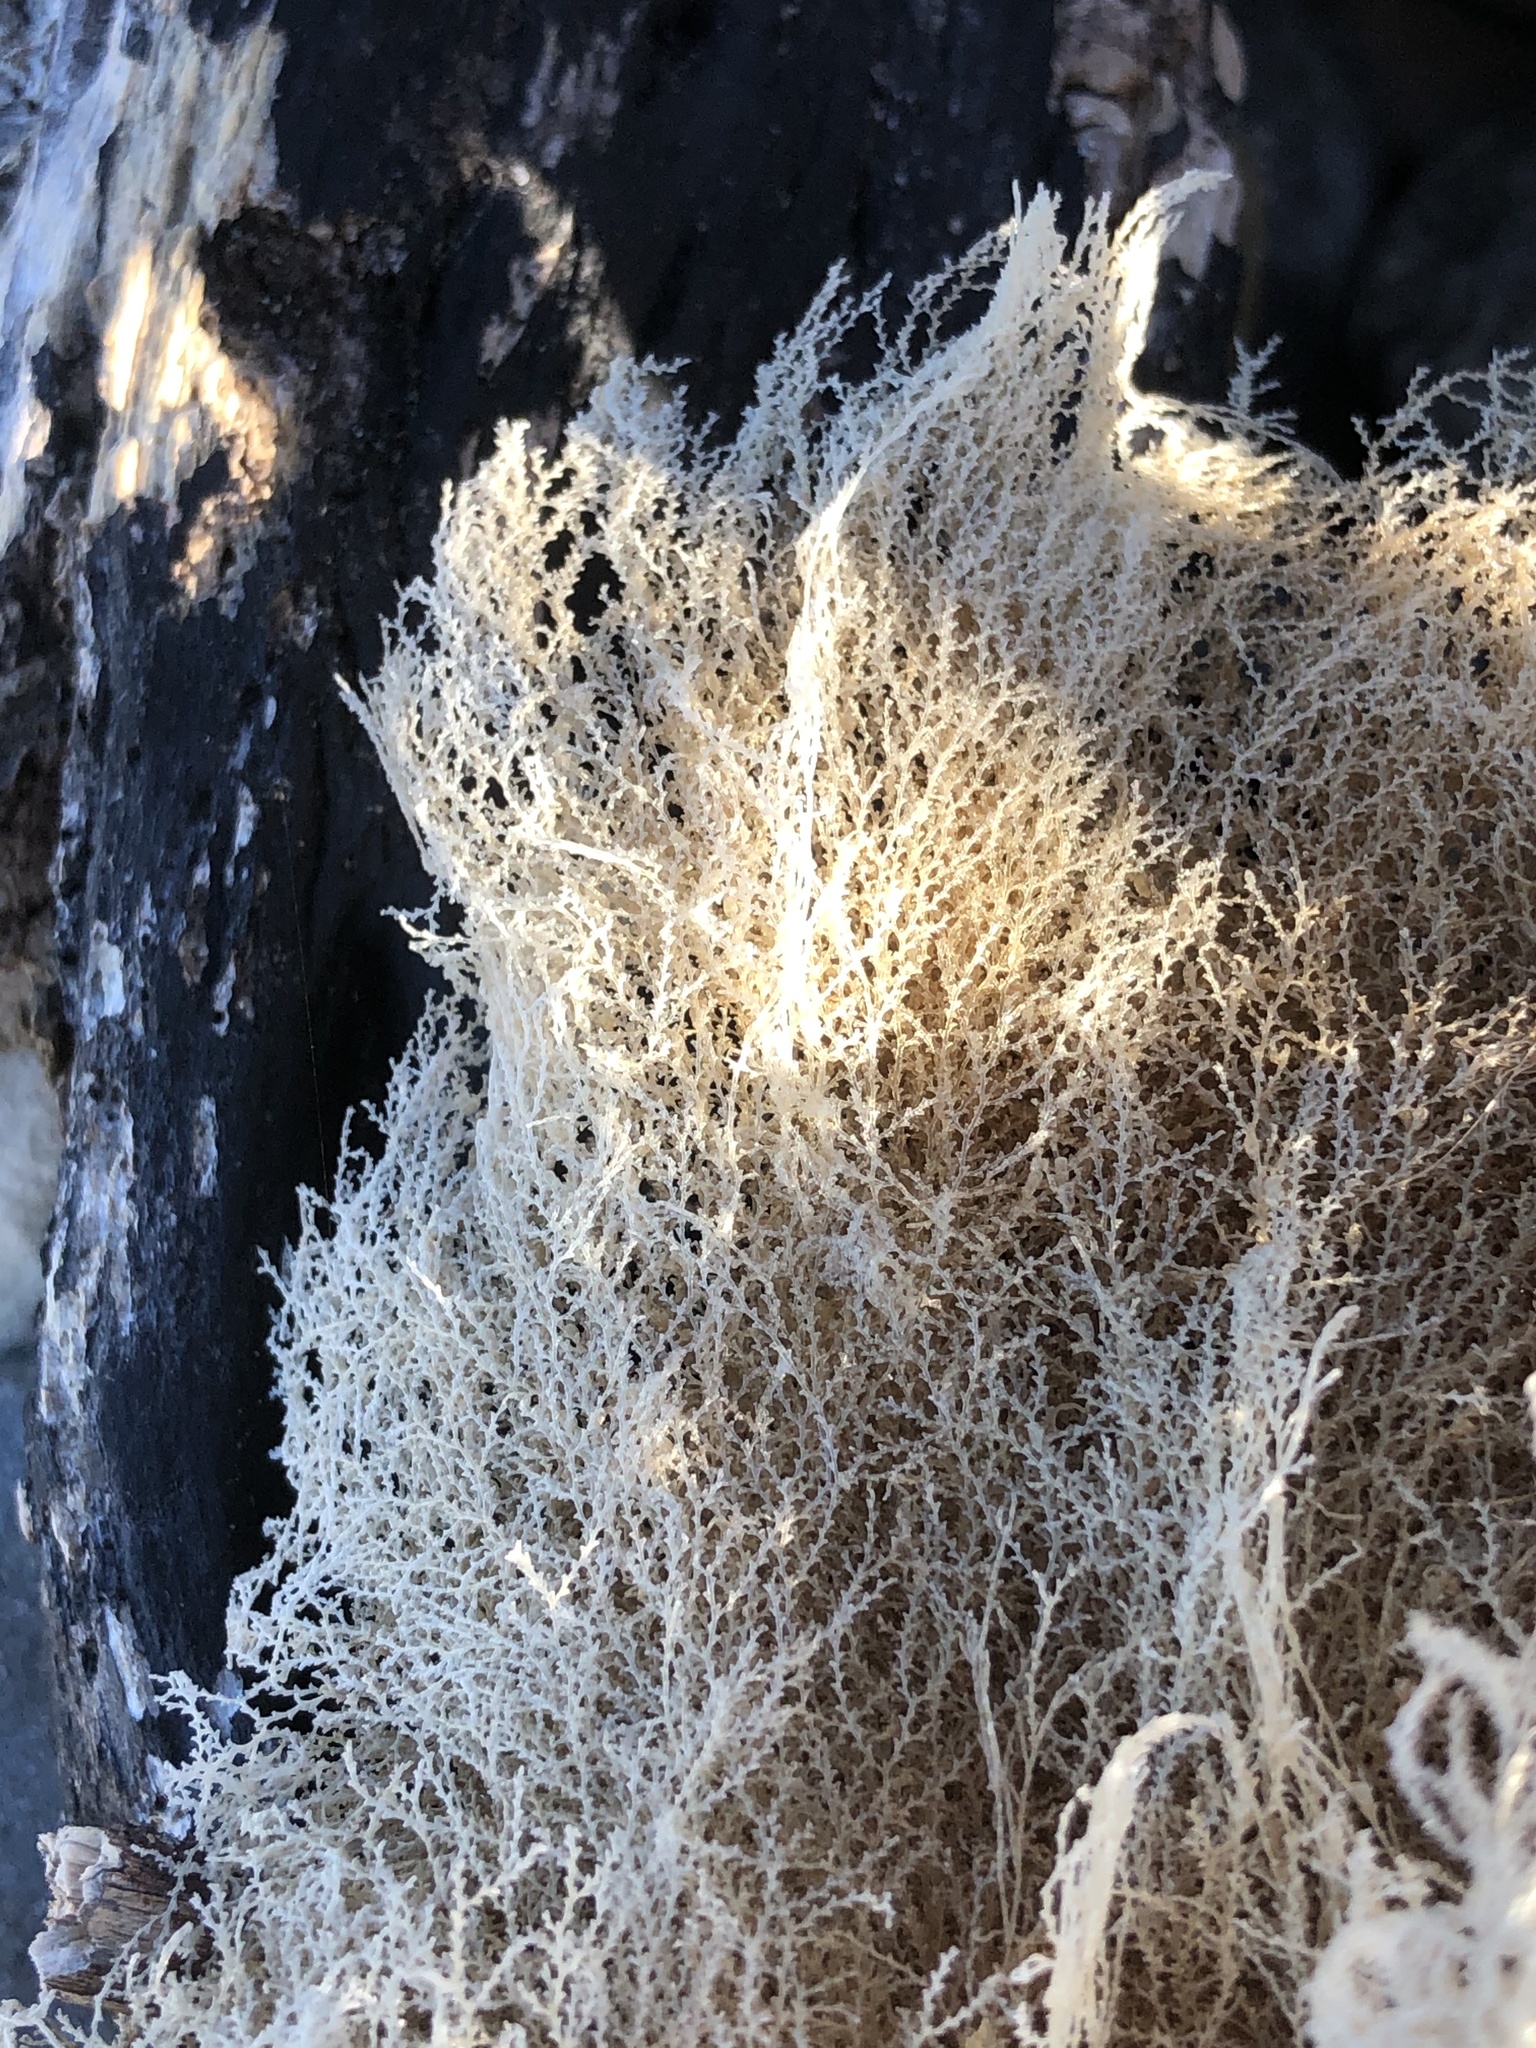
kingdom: Animalia
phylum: Cnidaria
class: Hydrozoa
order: Leptothecata
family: Sertulariidae
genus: Amphisbetia
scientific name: Amphisbetia bispinosa
